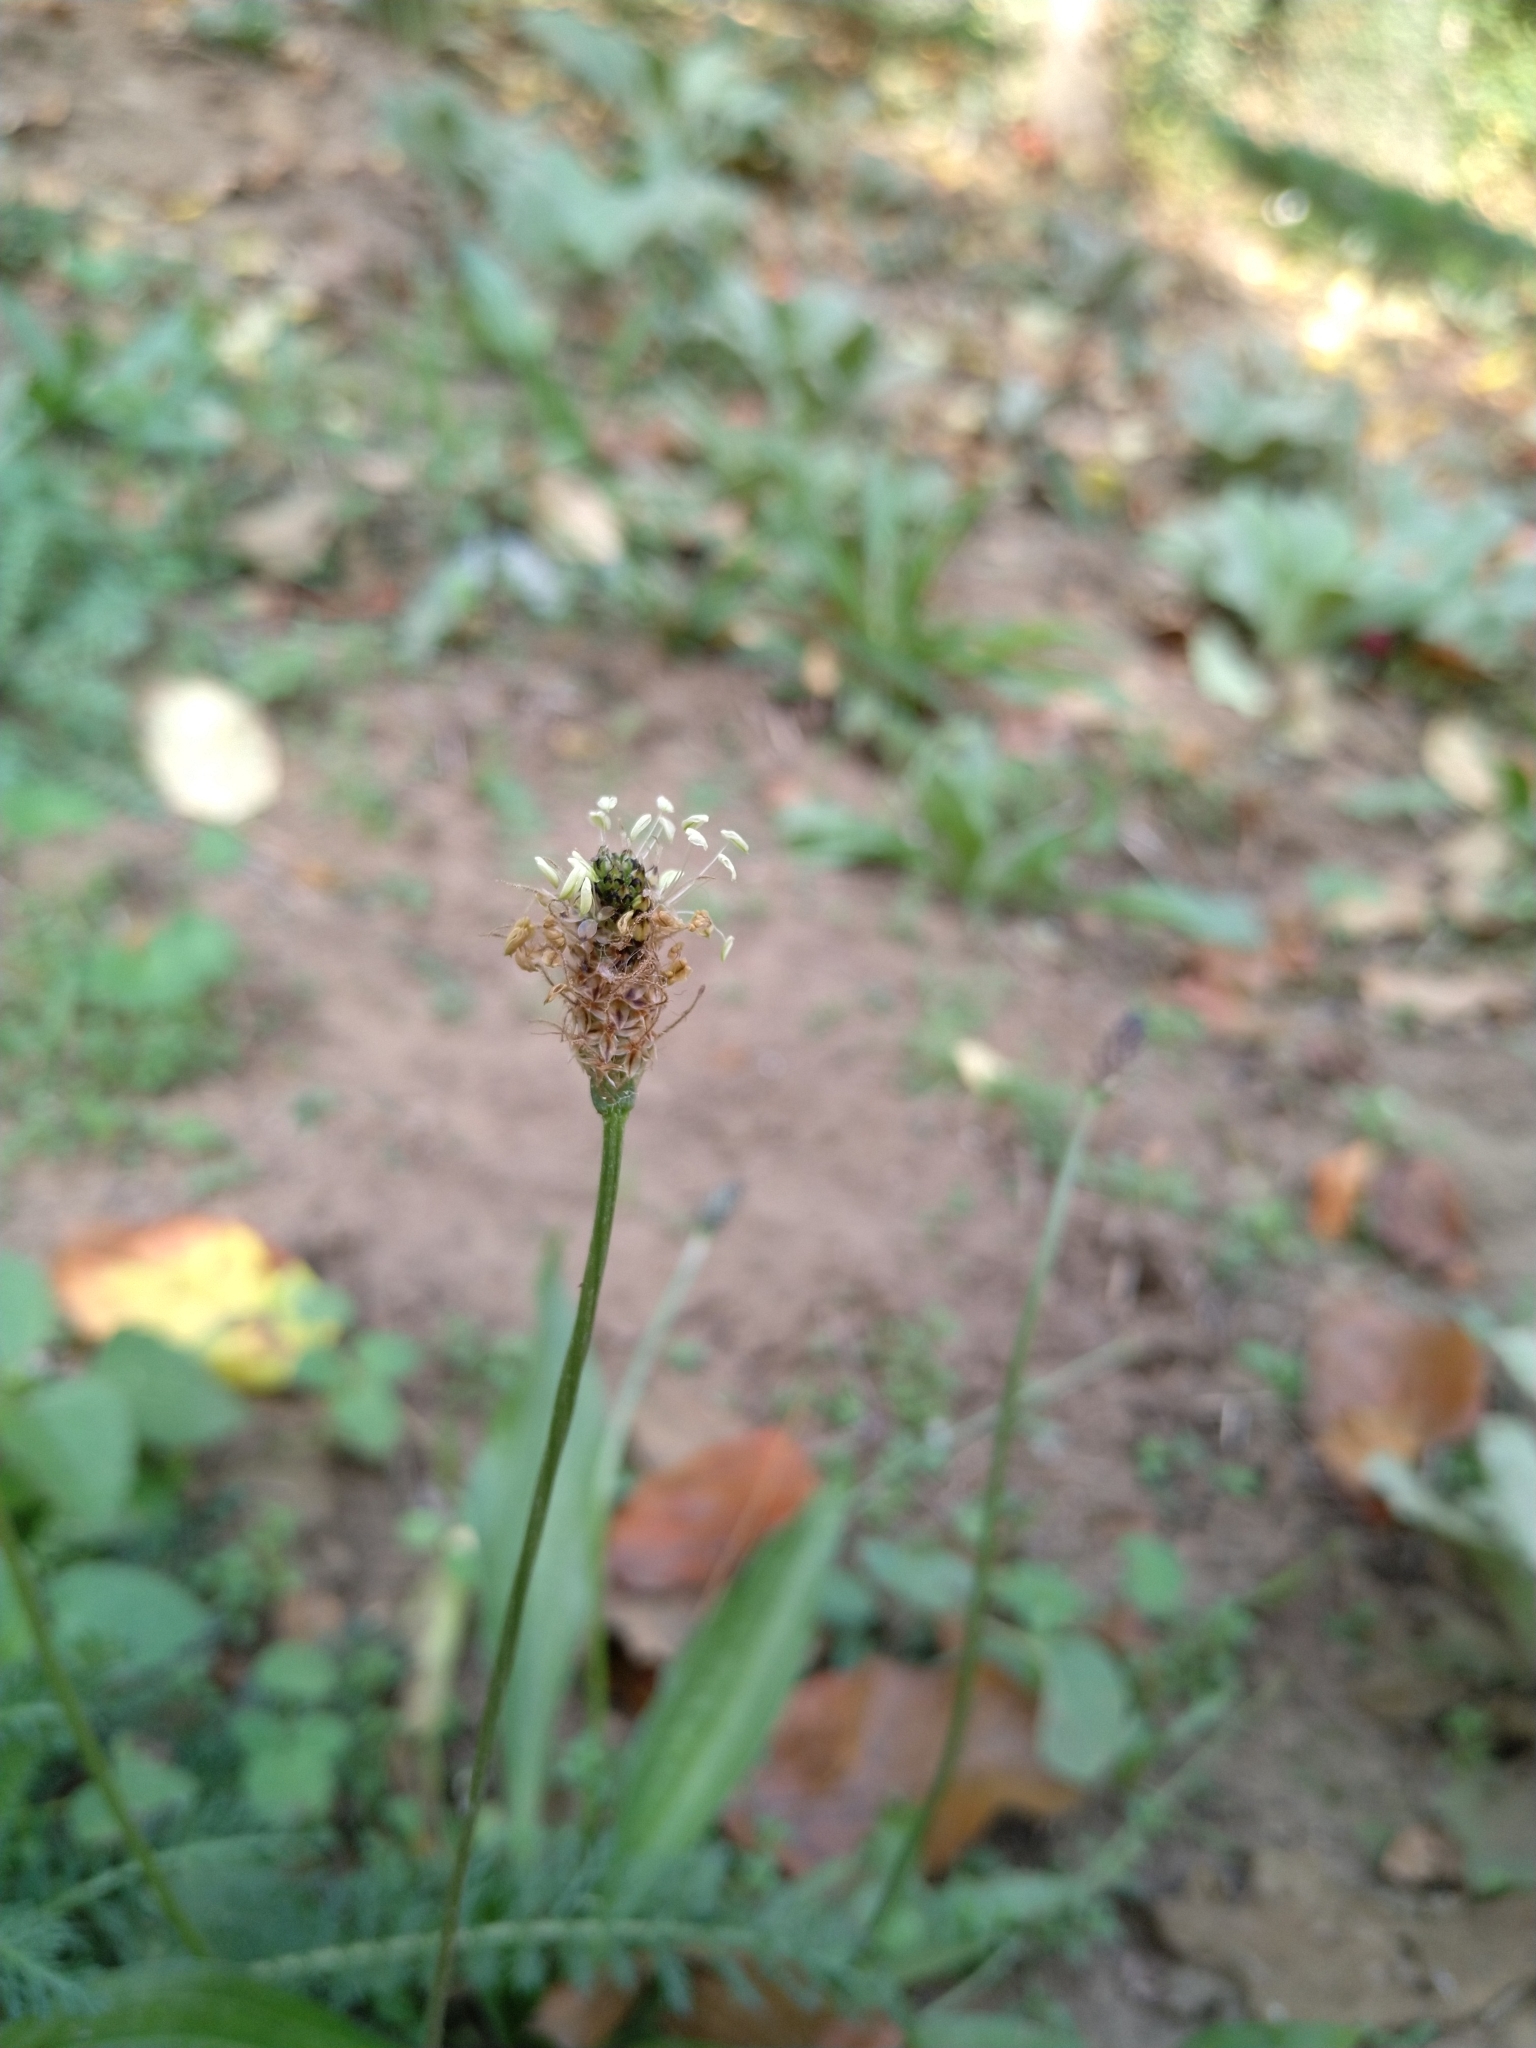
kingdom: Plantae
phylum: Tracheophyta
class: Magnoliopsida
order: Lamiales
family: Plantaginaceae
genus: Plantago
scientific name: Plantago lanceolata
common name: Ribwort plantain
